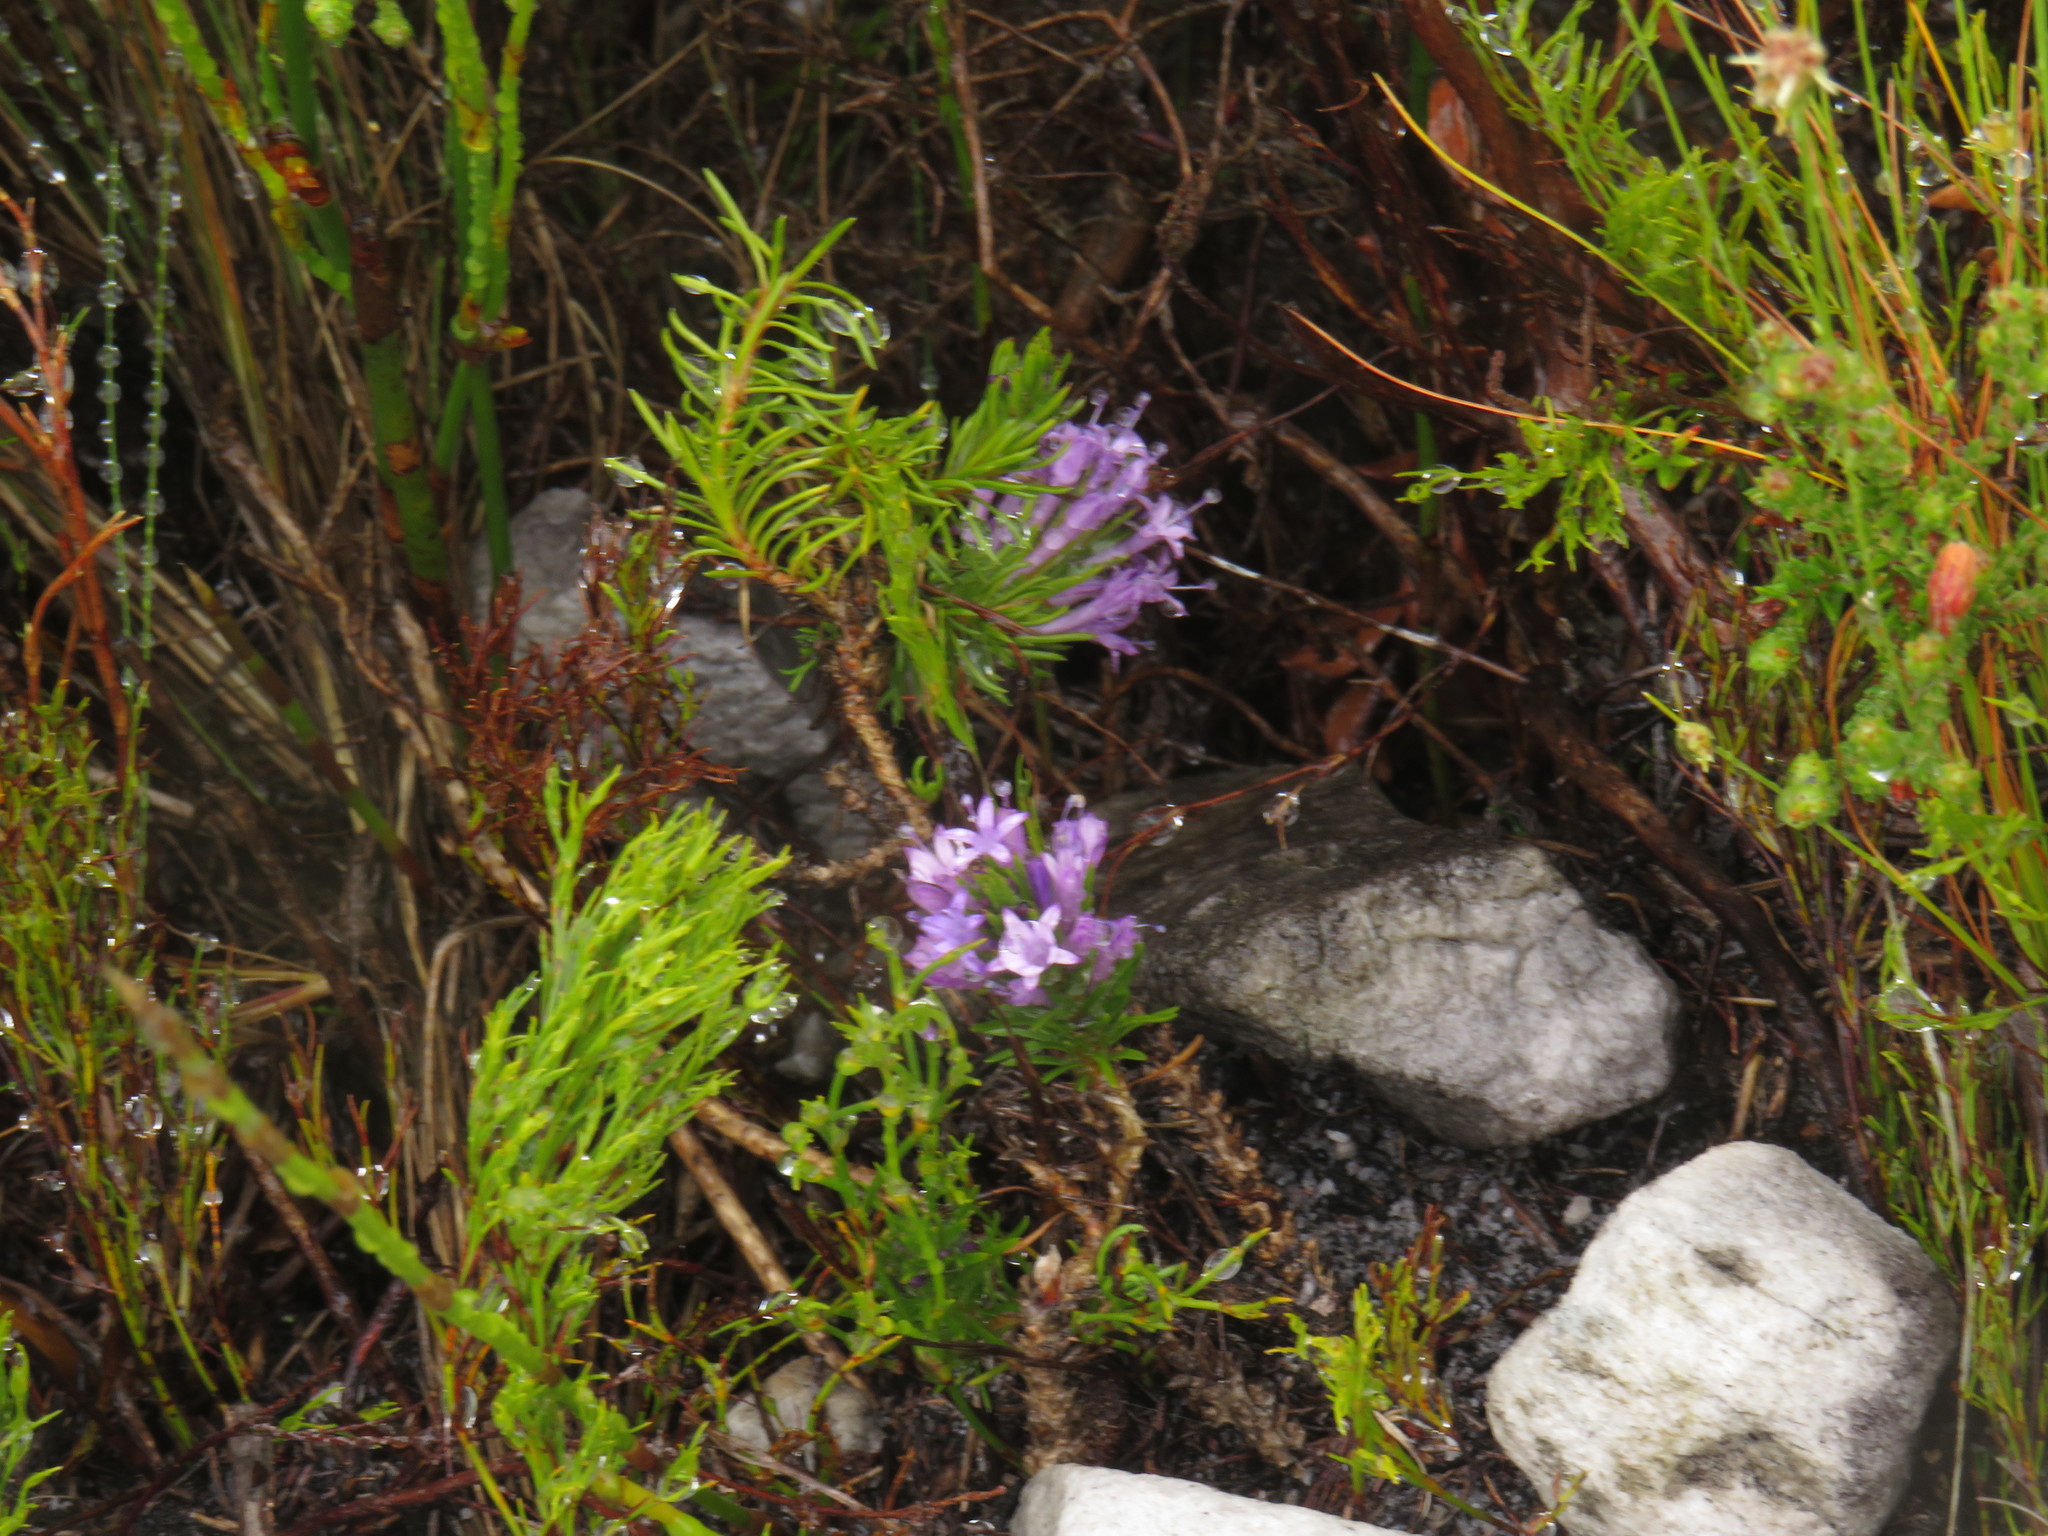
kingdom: Plantae
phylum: Tracheophyta
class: Magnoliopsida
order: Asterales
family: Campanulaceae
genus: Merciera
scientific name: Merciera azurea
